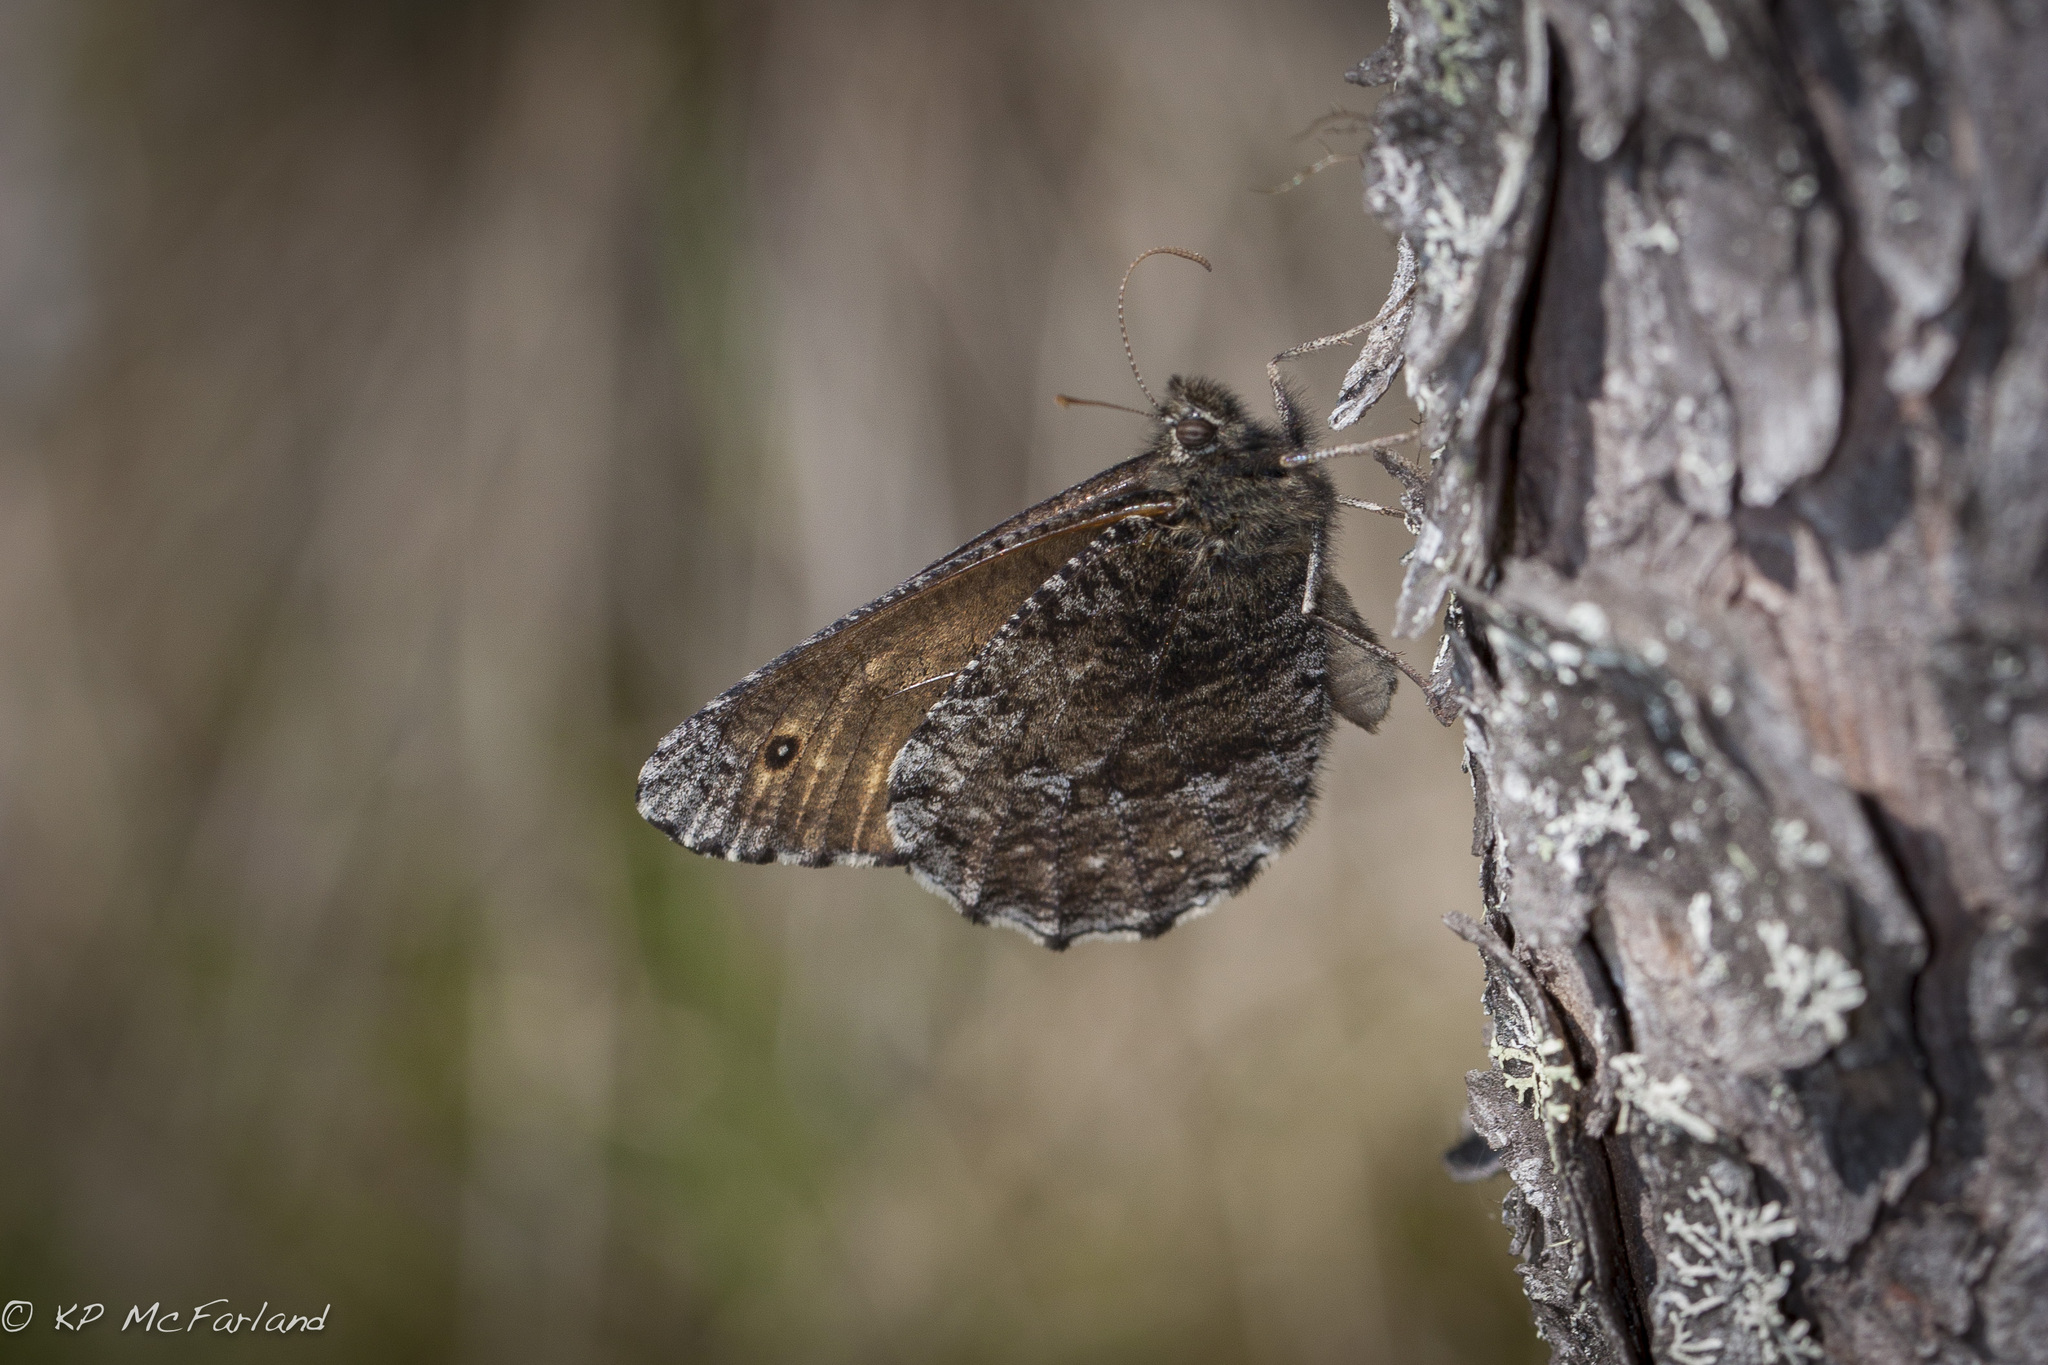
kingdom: Animalia
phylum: Arthropoda
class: Insecta
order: Lepidoptera
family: Nymphalidae
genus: Oeneis
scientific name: Oeneis jutta
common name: Baltic grayling
